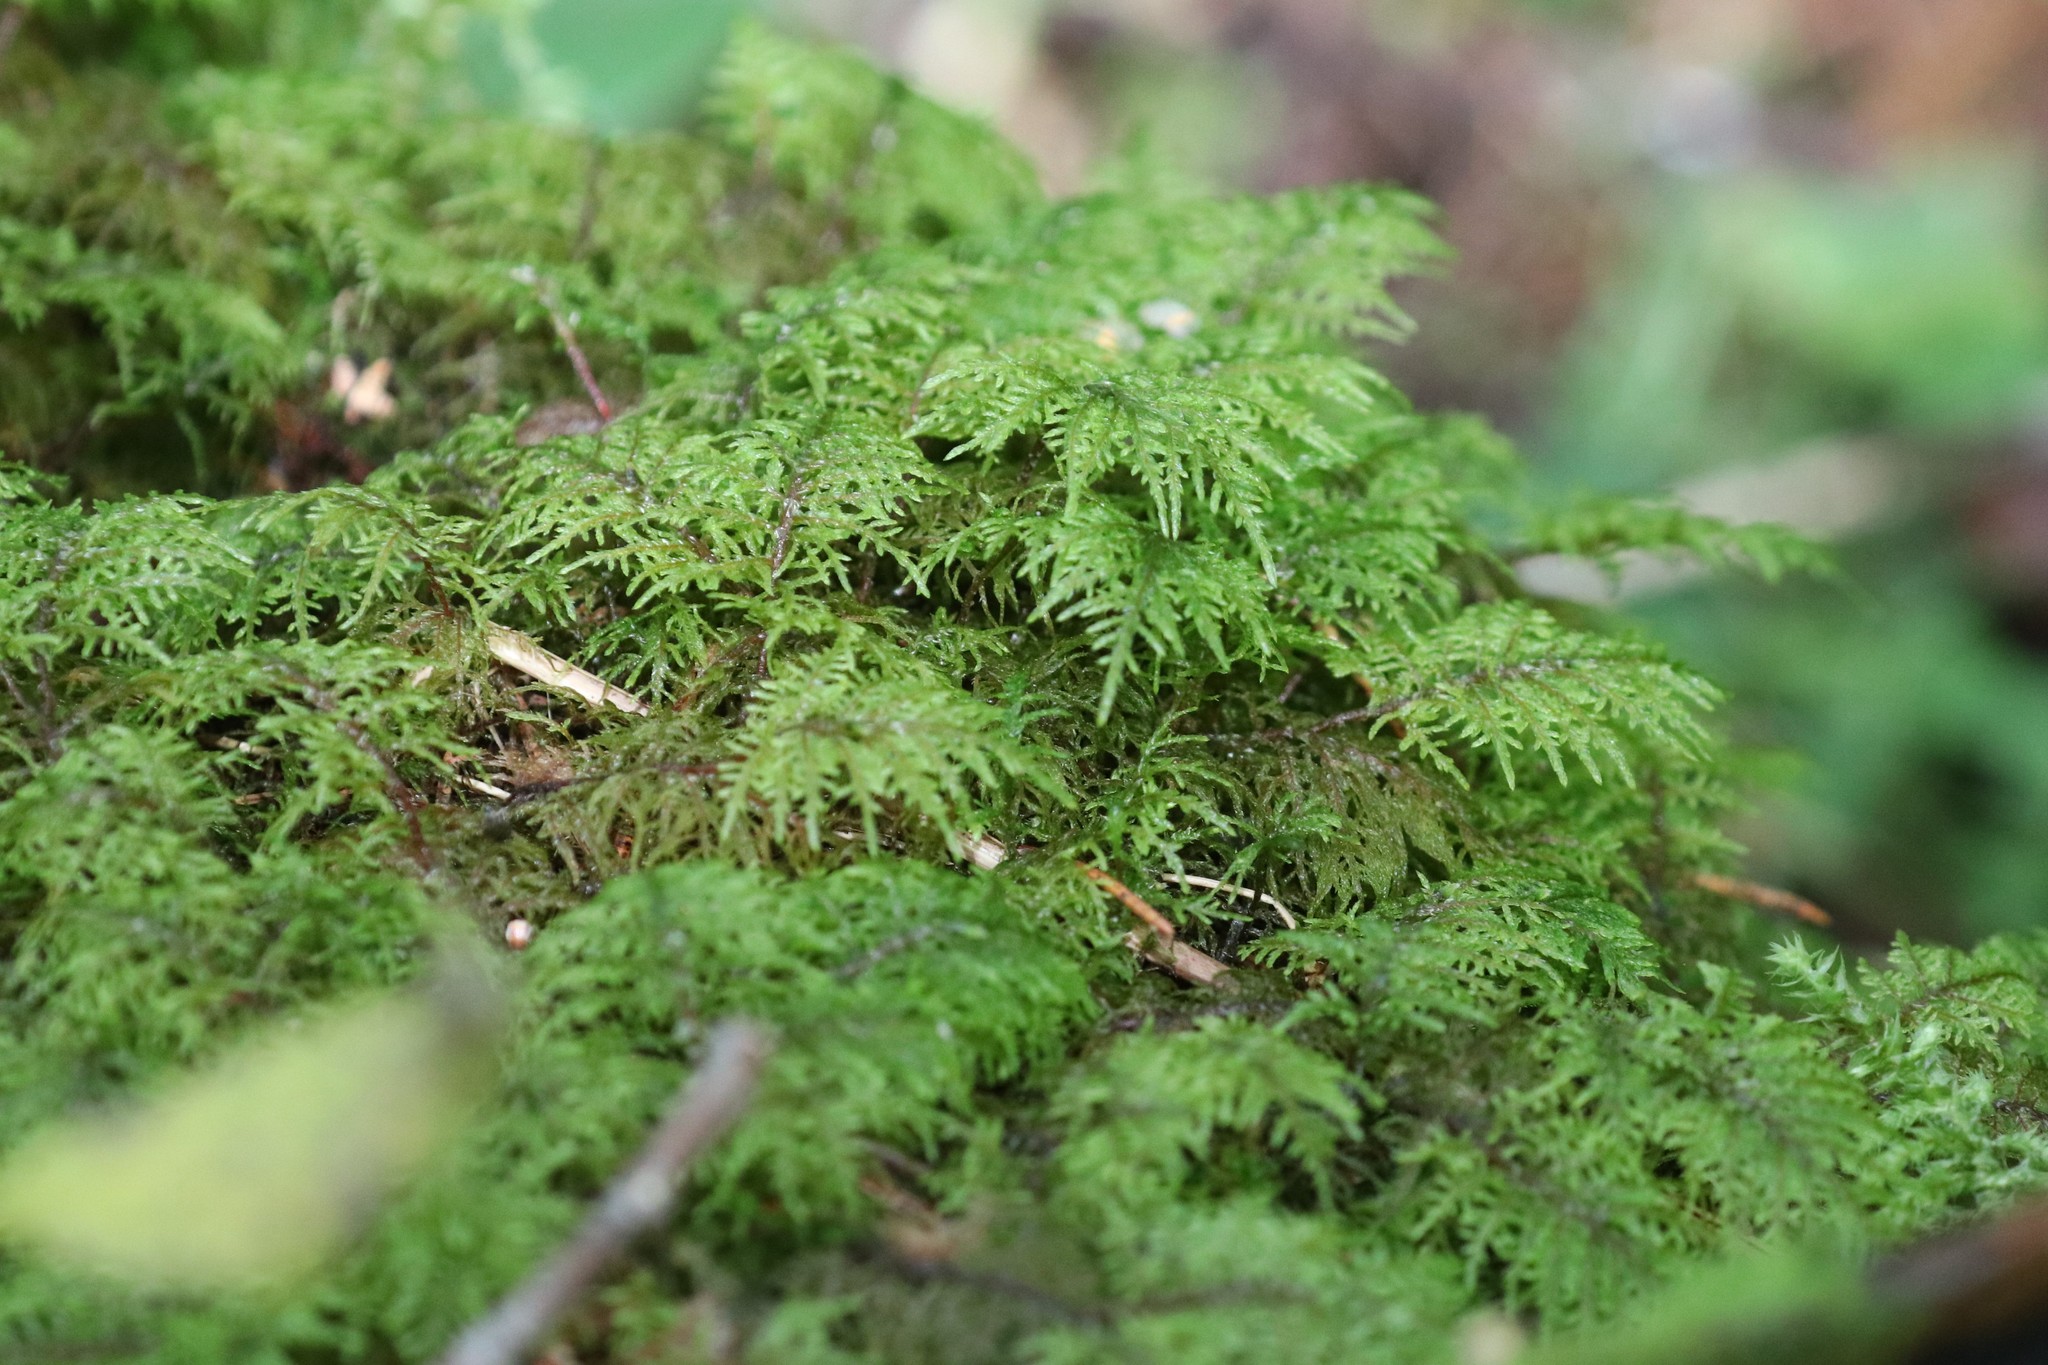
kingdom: Plantae
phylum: Bryophyta
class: Bryopsida
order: Hypnales
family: Hylocomiaceae
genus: Hylocomium
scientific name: Hylocomium splendens
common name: Stairstep moss
